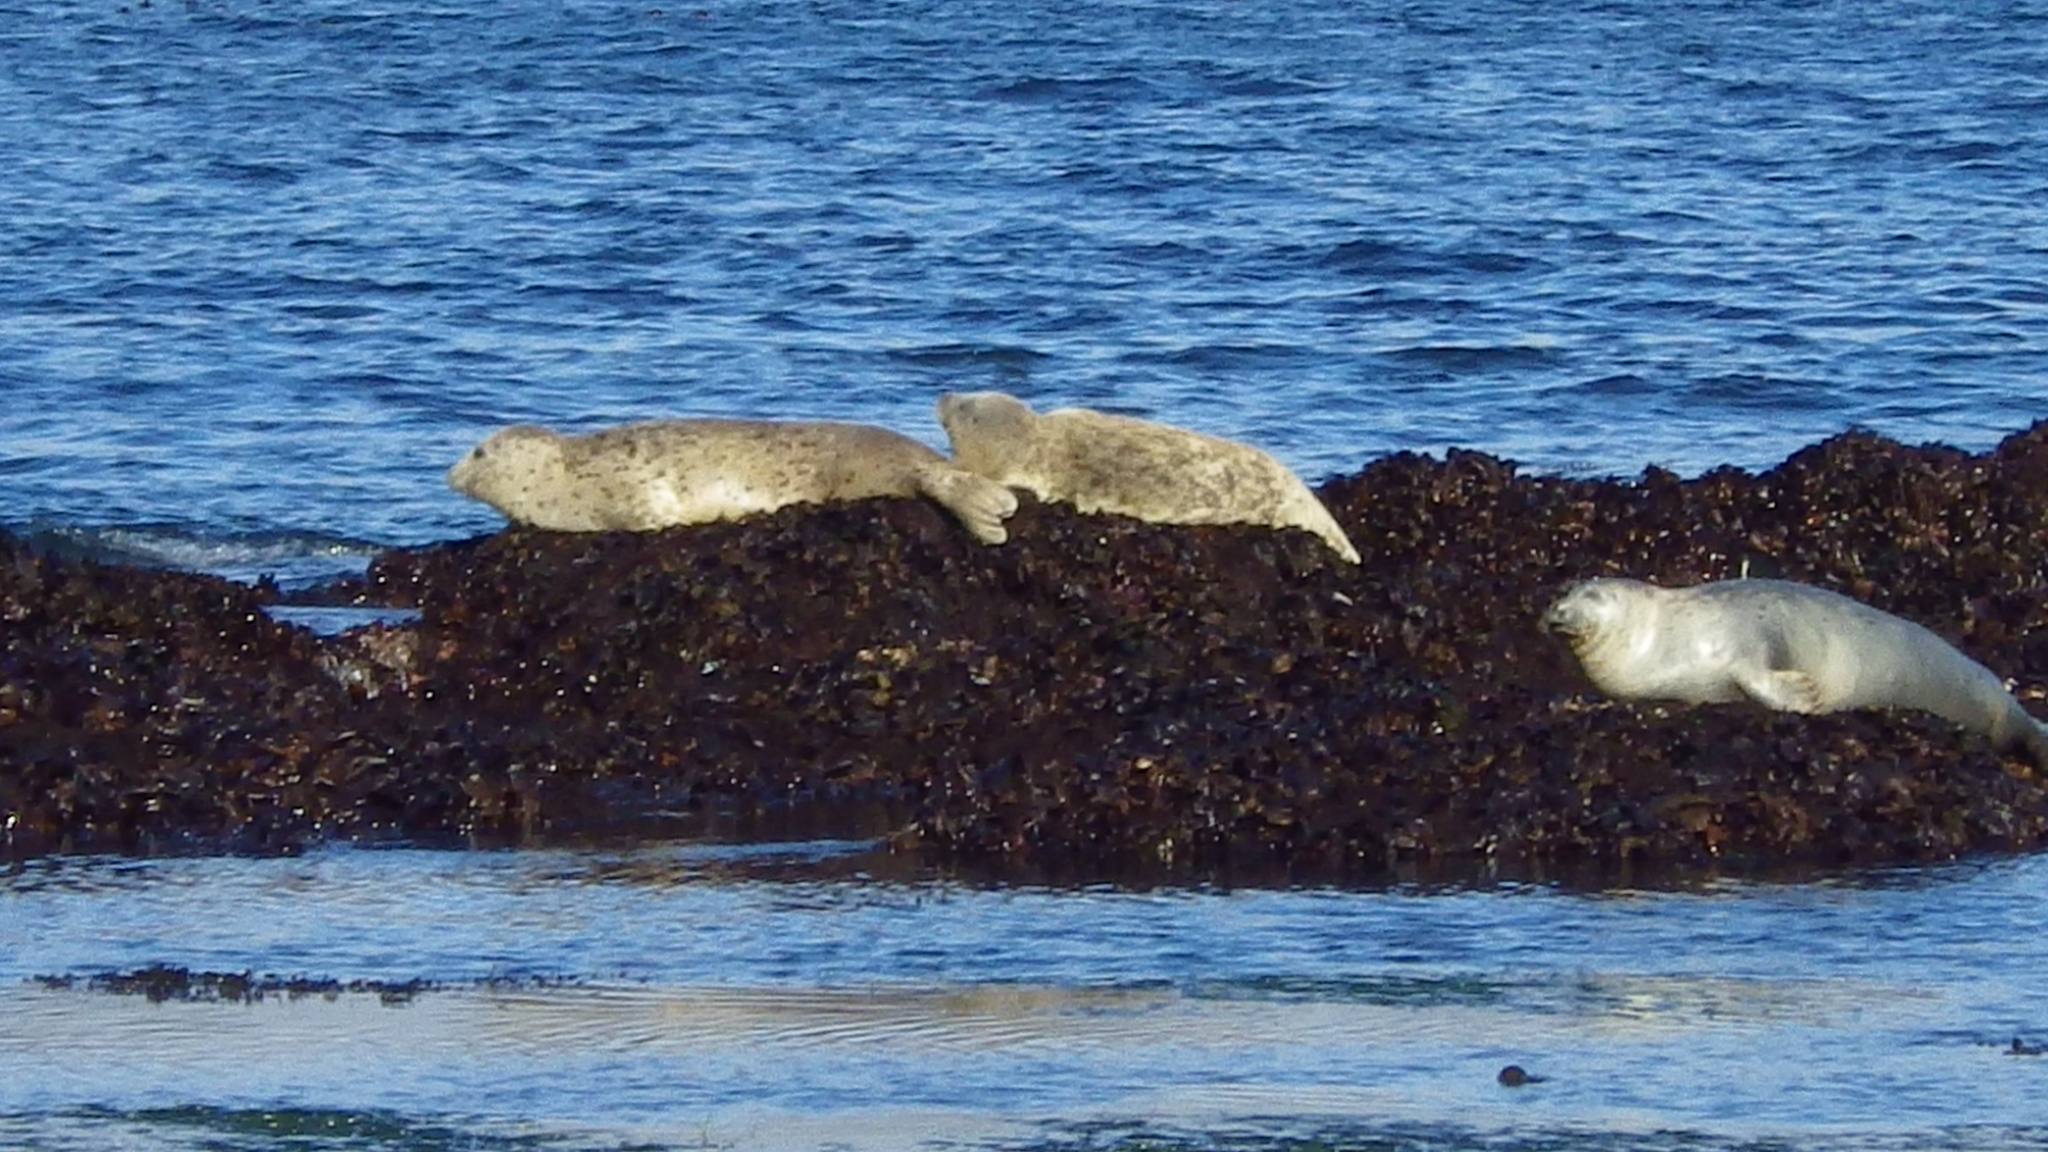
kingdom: Animalia
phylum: Chordata
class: Mammalia
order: Carnivora
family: Phocidae
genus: Phoca
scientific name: Phoca vitulina
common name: Harbor seal
